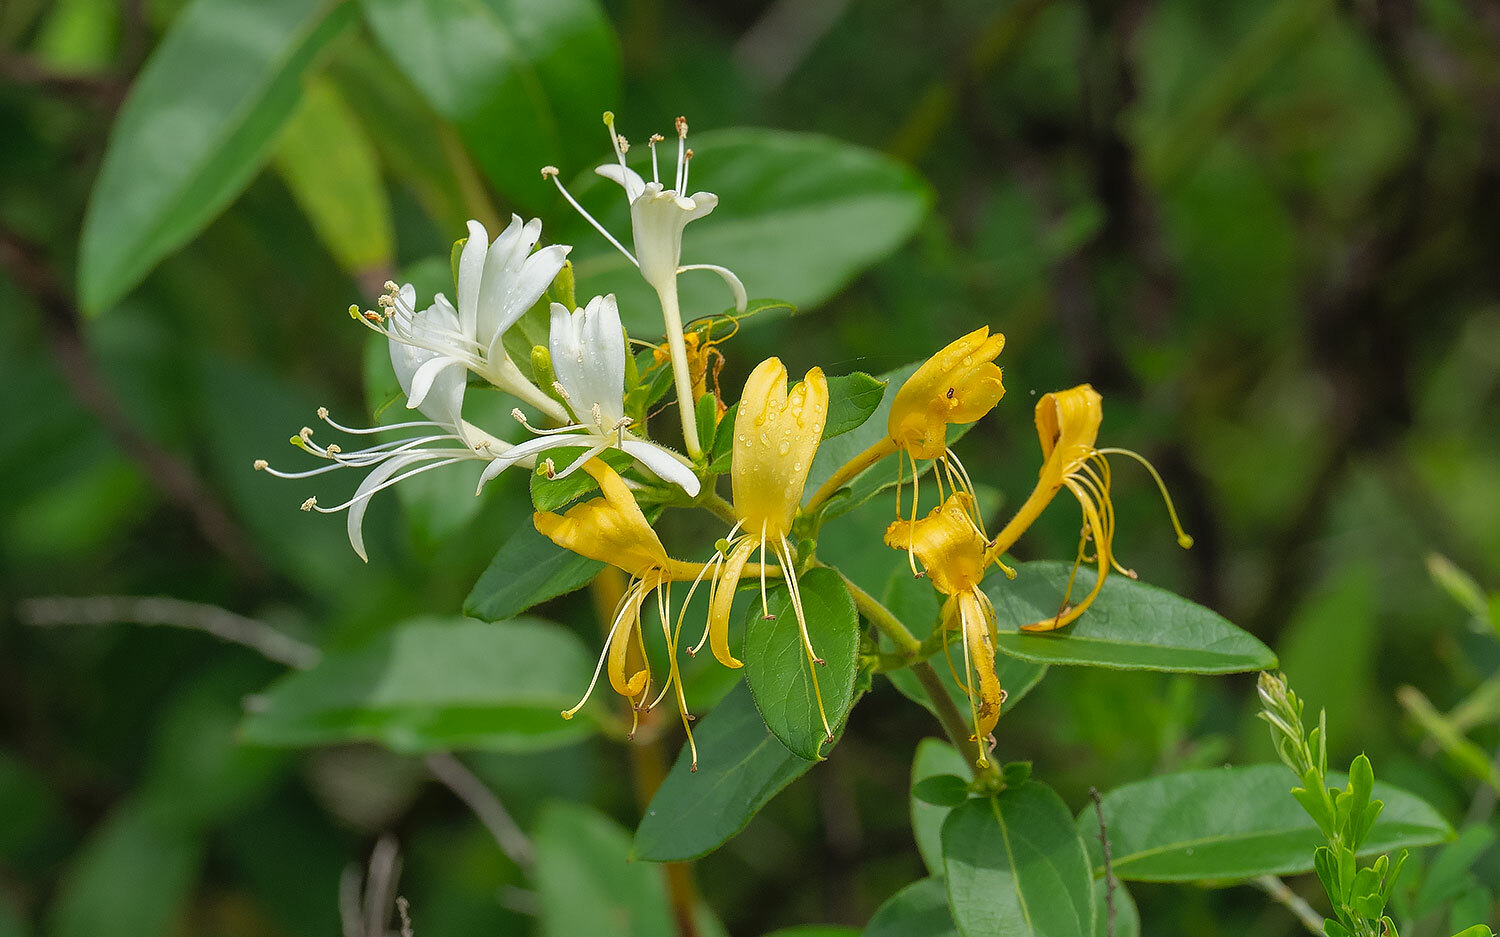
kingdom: Plantae
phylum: Tracheophyta
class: Magnoliopsida
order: Dipsacales
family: Caprifoliaceae
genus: Lonicera
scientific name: Lonicera japonica
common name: Japanese honeysuckle
